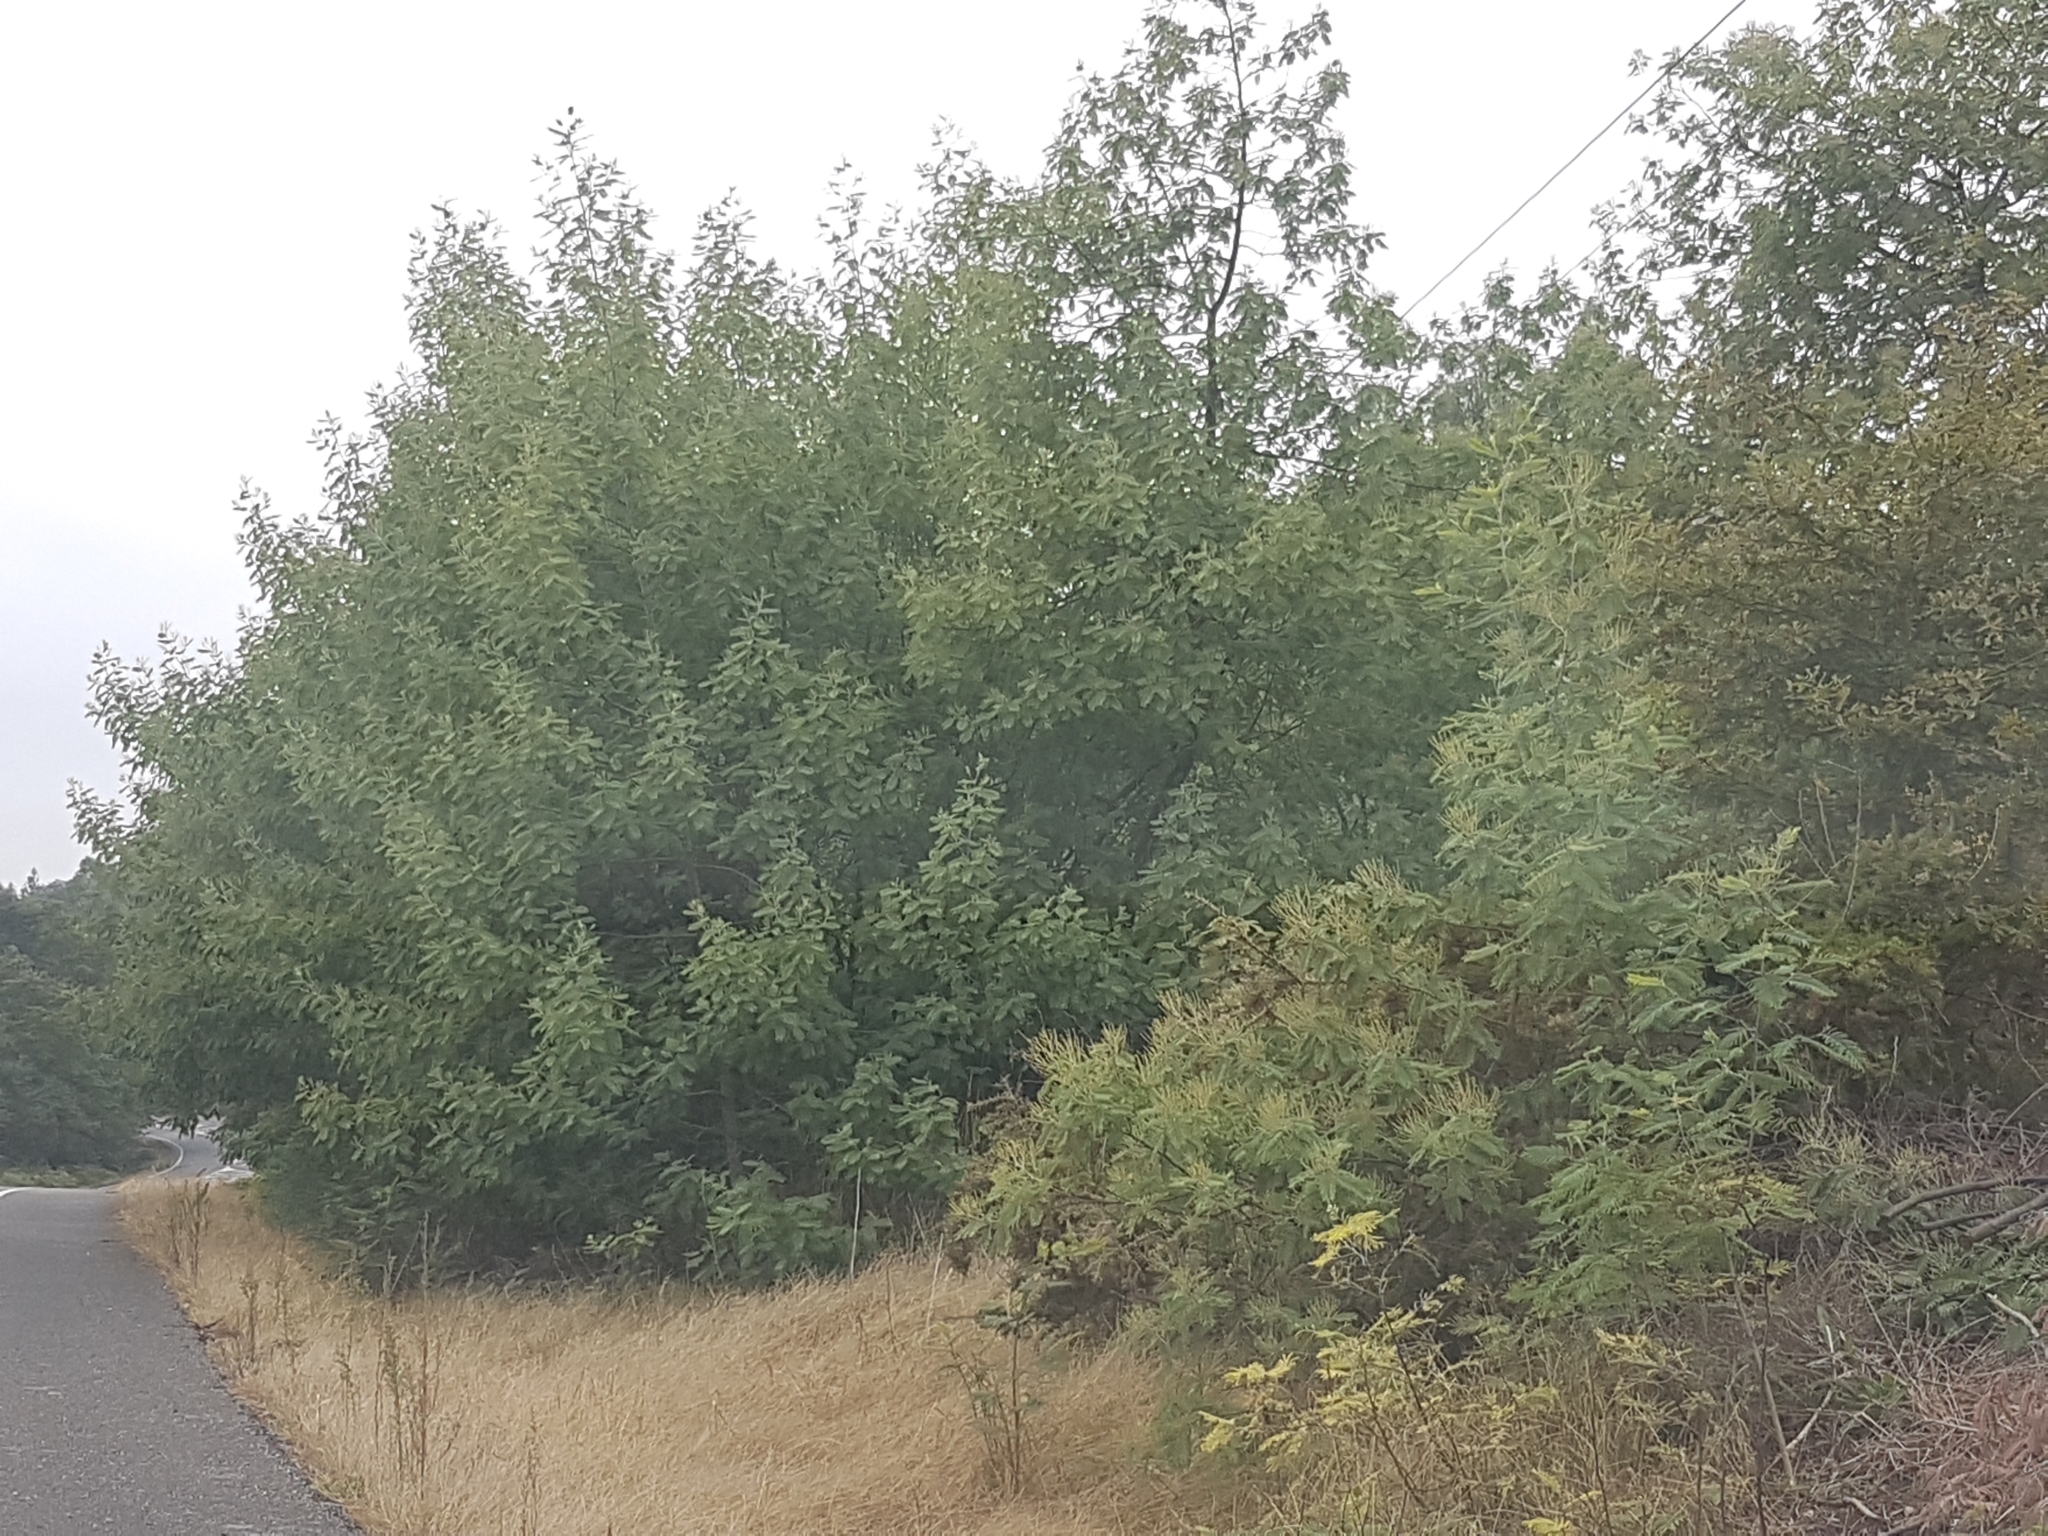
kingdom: Plantae
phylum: Tracheophyta
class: Magnoliopsida
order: Fabales
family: Fabaceae
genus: Acacia
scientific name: Acacia dealbata
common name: Silver wattle
